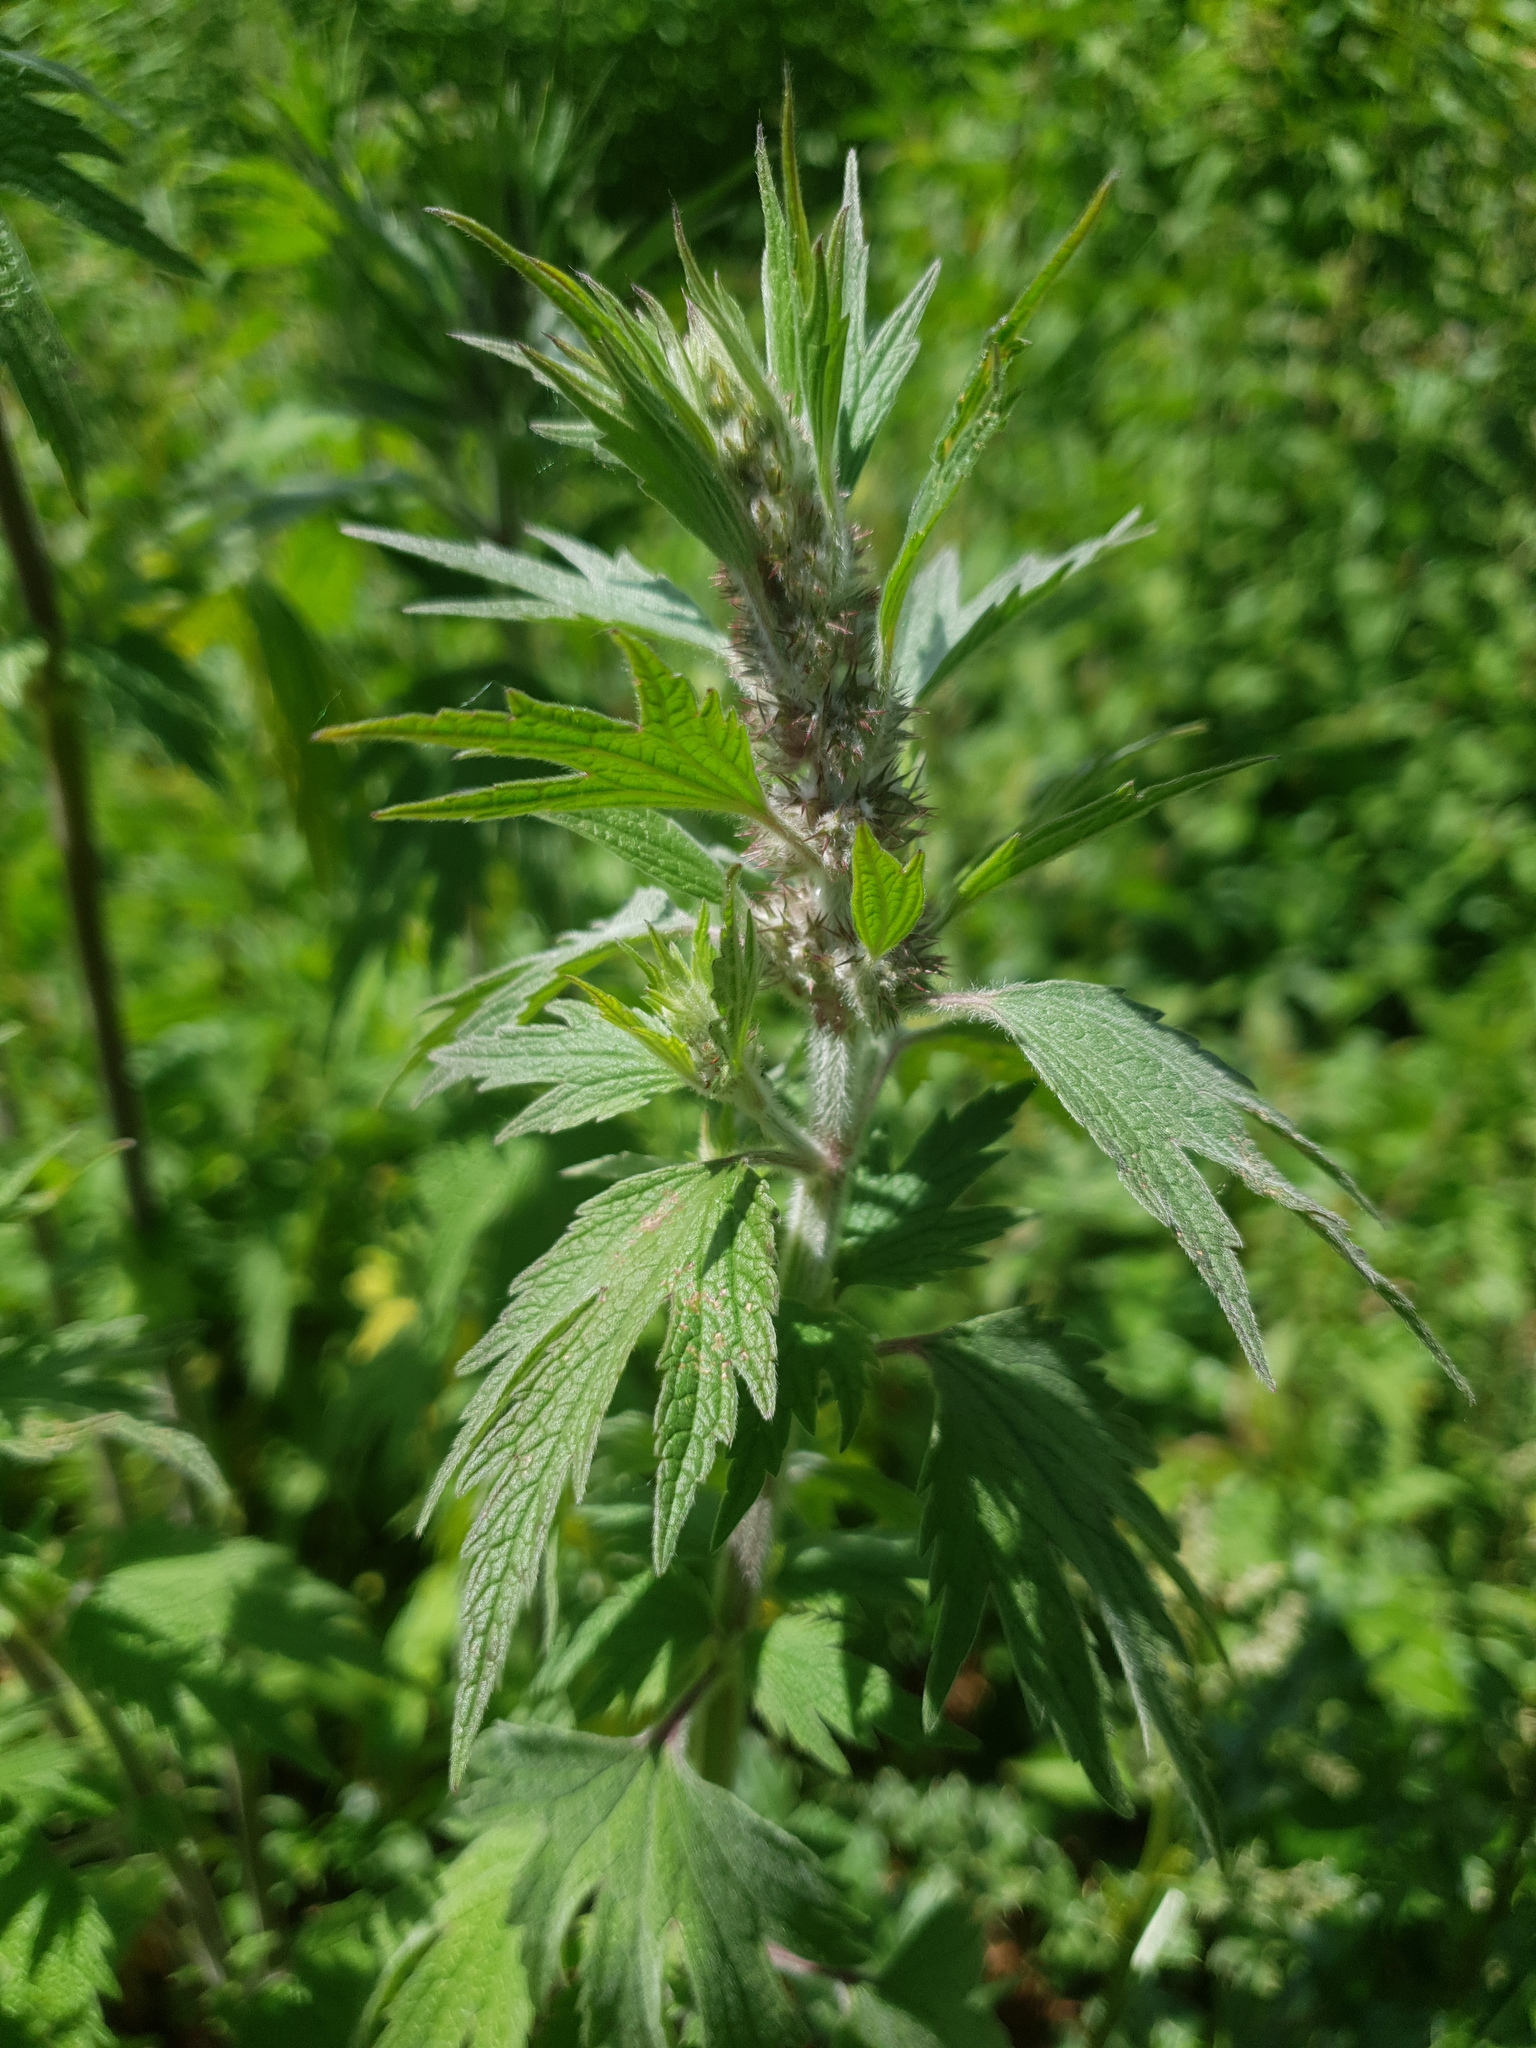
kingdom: Plantae
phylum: Tracheophyta
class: Magnoliopsida
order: Lamiales
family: Lamiaceae
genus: Leonurus
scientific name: Leonurus quinquelobatus
